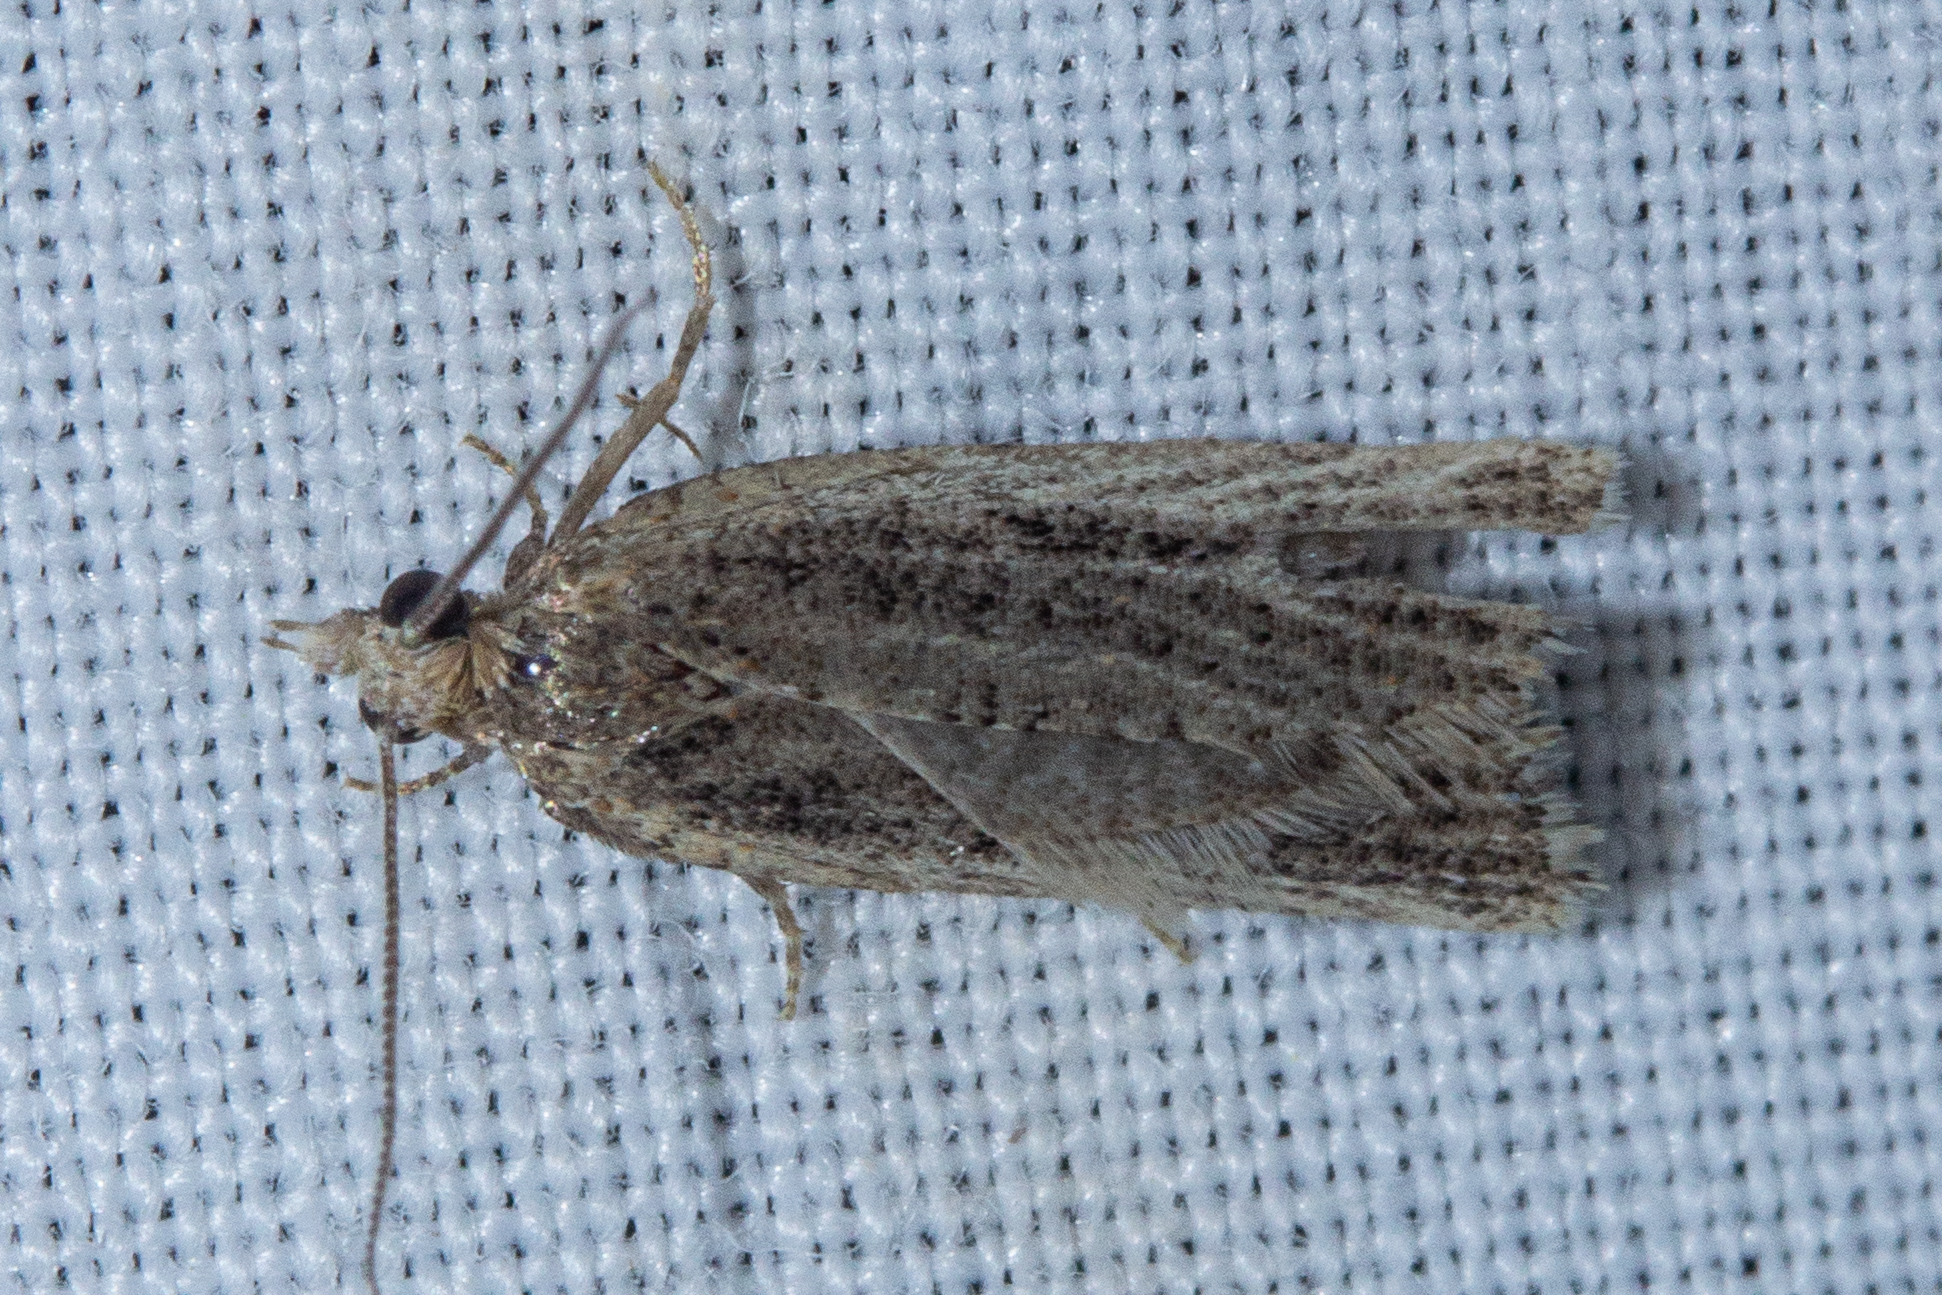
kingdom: Animalia
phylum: Arthropoda
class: Insecta
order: Lepidoptera
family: Tortricidae
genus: Capua
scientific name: Capua semiferana
